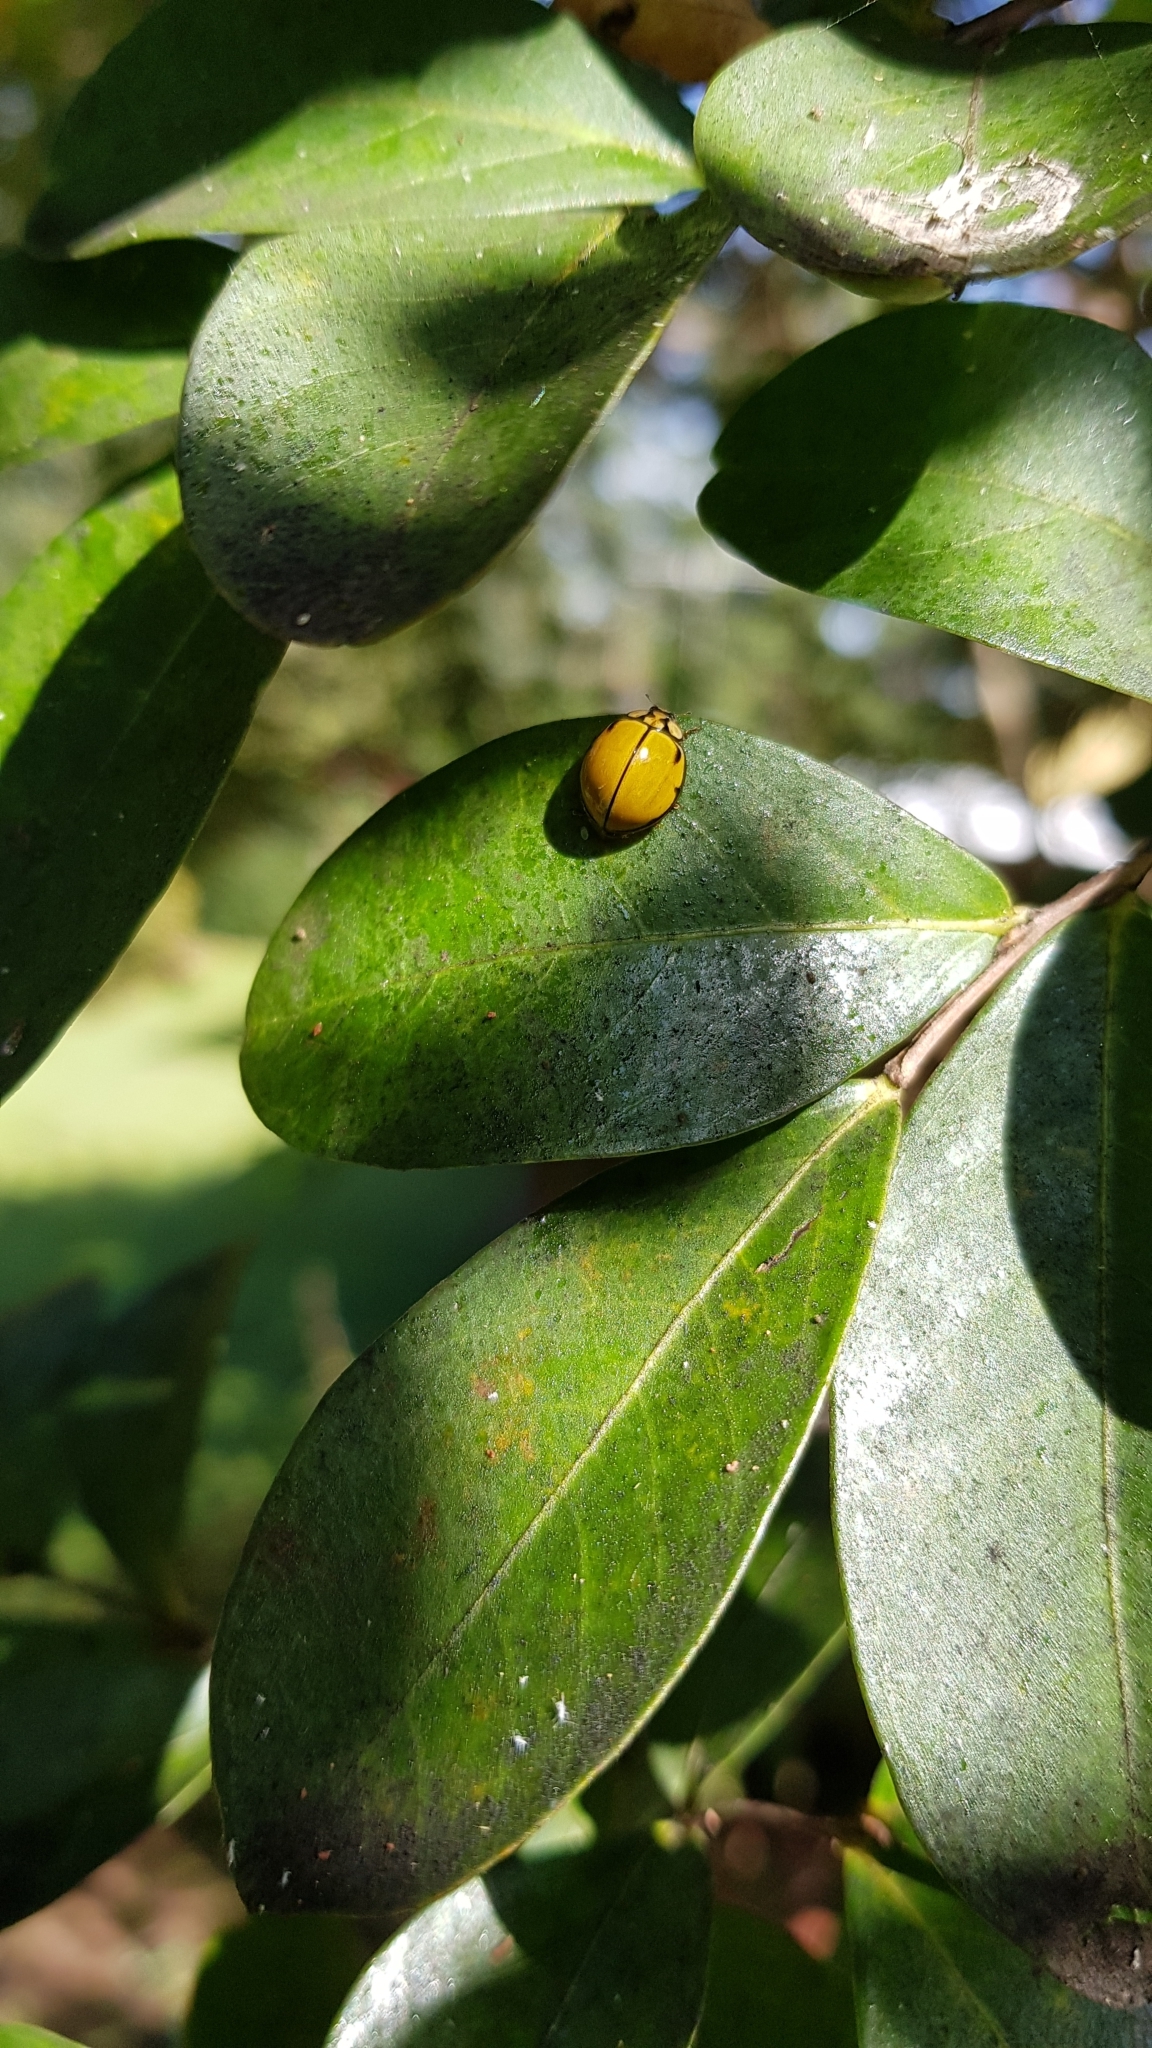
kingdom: Animalia
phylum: Arthropoda
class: Insecta
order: Coleoptera
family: Coccinellidae
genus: Harmonia
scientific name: Harmonia
